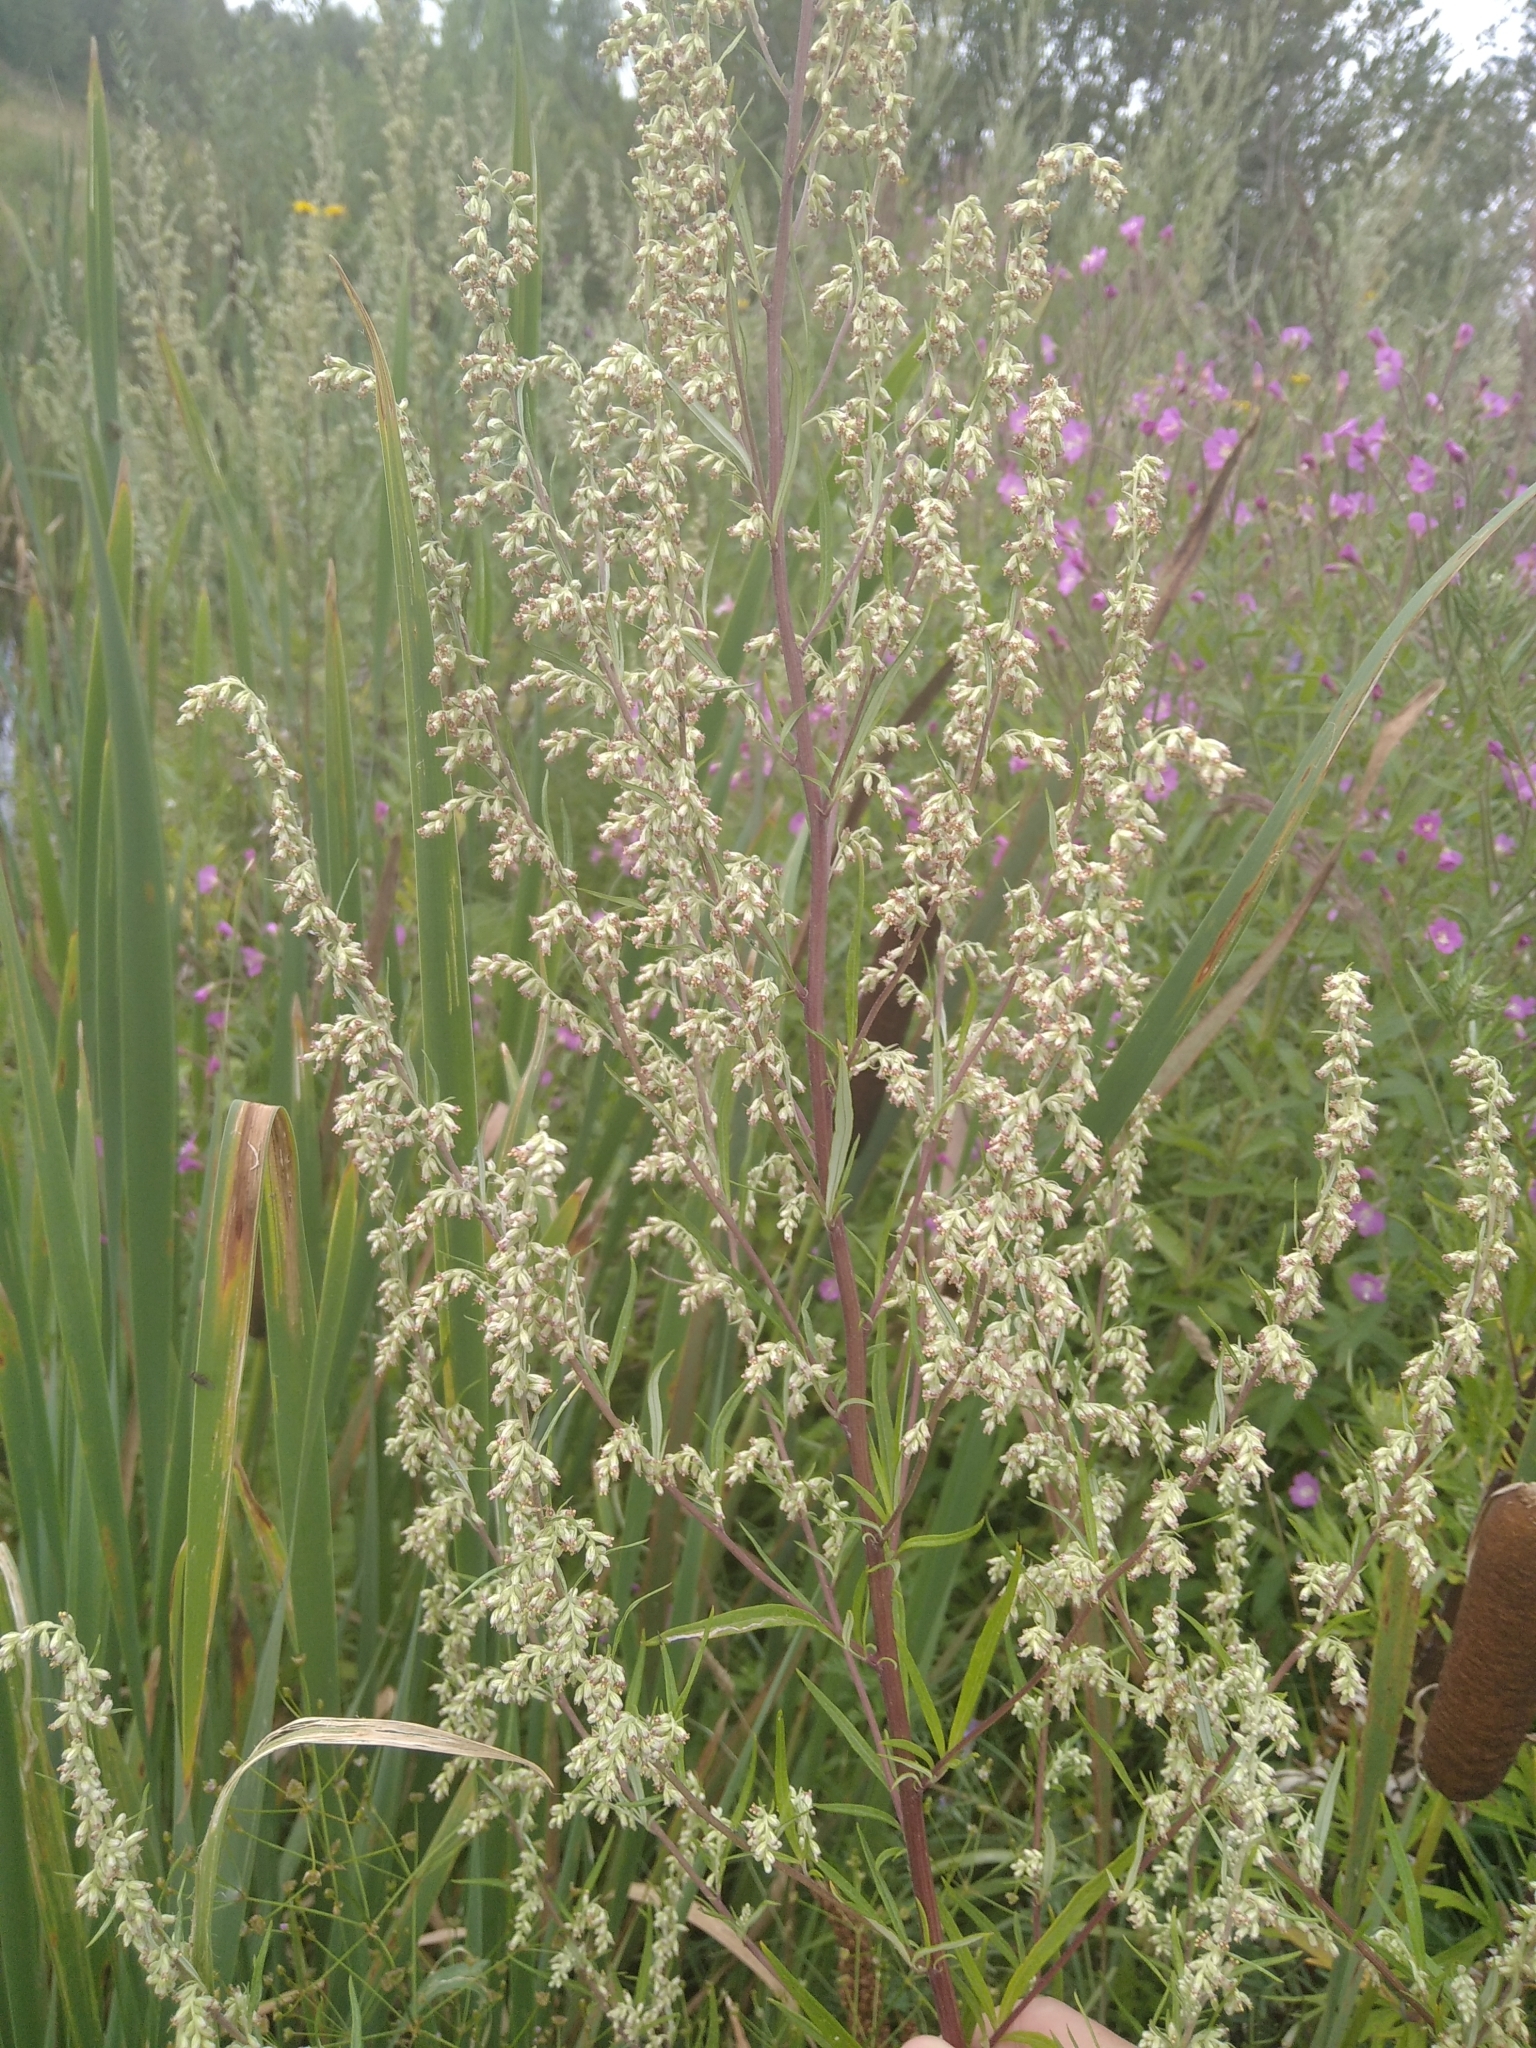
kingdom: Plantae
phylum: Tracheophyta
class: Magnoliopsida
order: Asterales
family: Asteraceae
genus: Artemisia
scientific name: Artemisia vulgaris
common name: Mugwort
